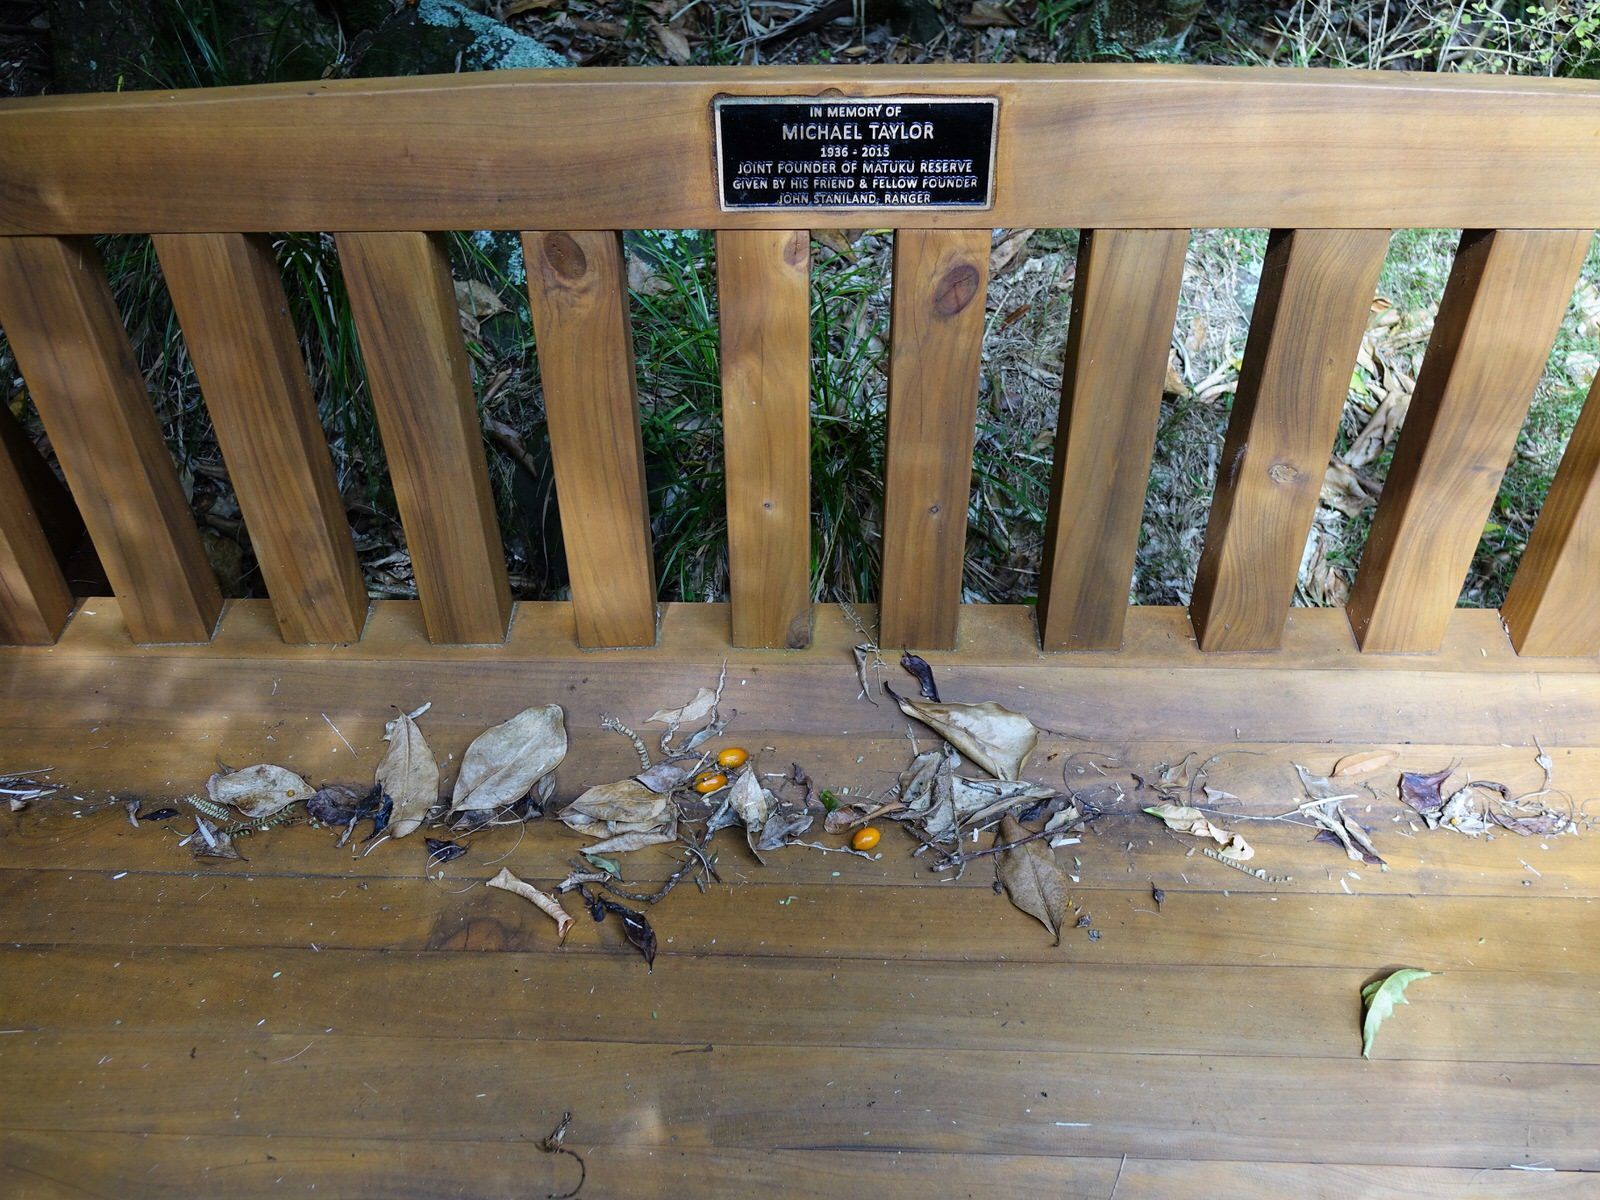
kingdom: Plantae
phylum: Tracheophyta
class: Magnoliopsida
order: Cucurbitales
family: Corynocarpaceae
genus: Corynocarpus
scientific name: Corynocarpus laevigatus
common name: New zealand laurel
